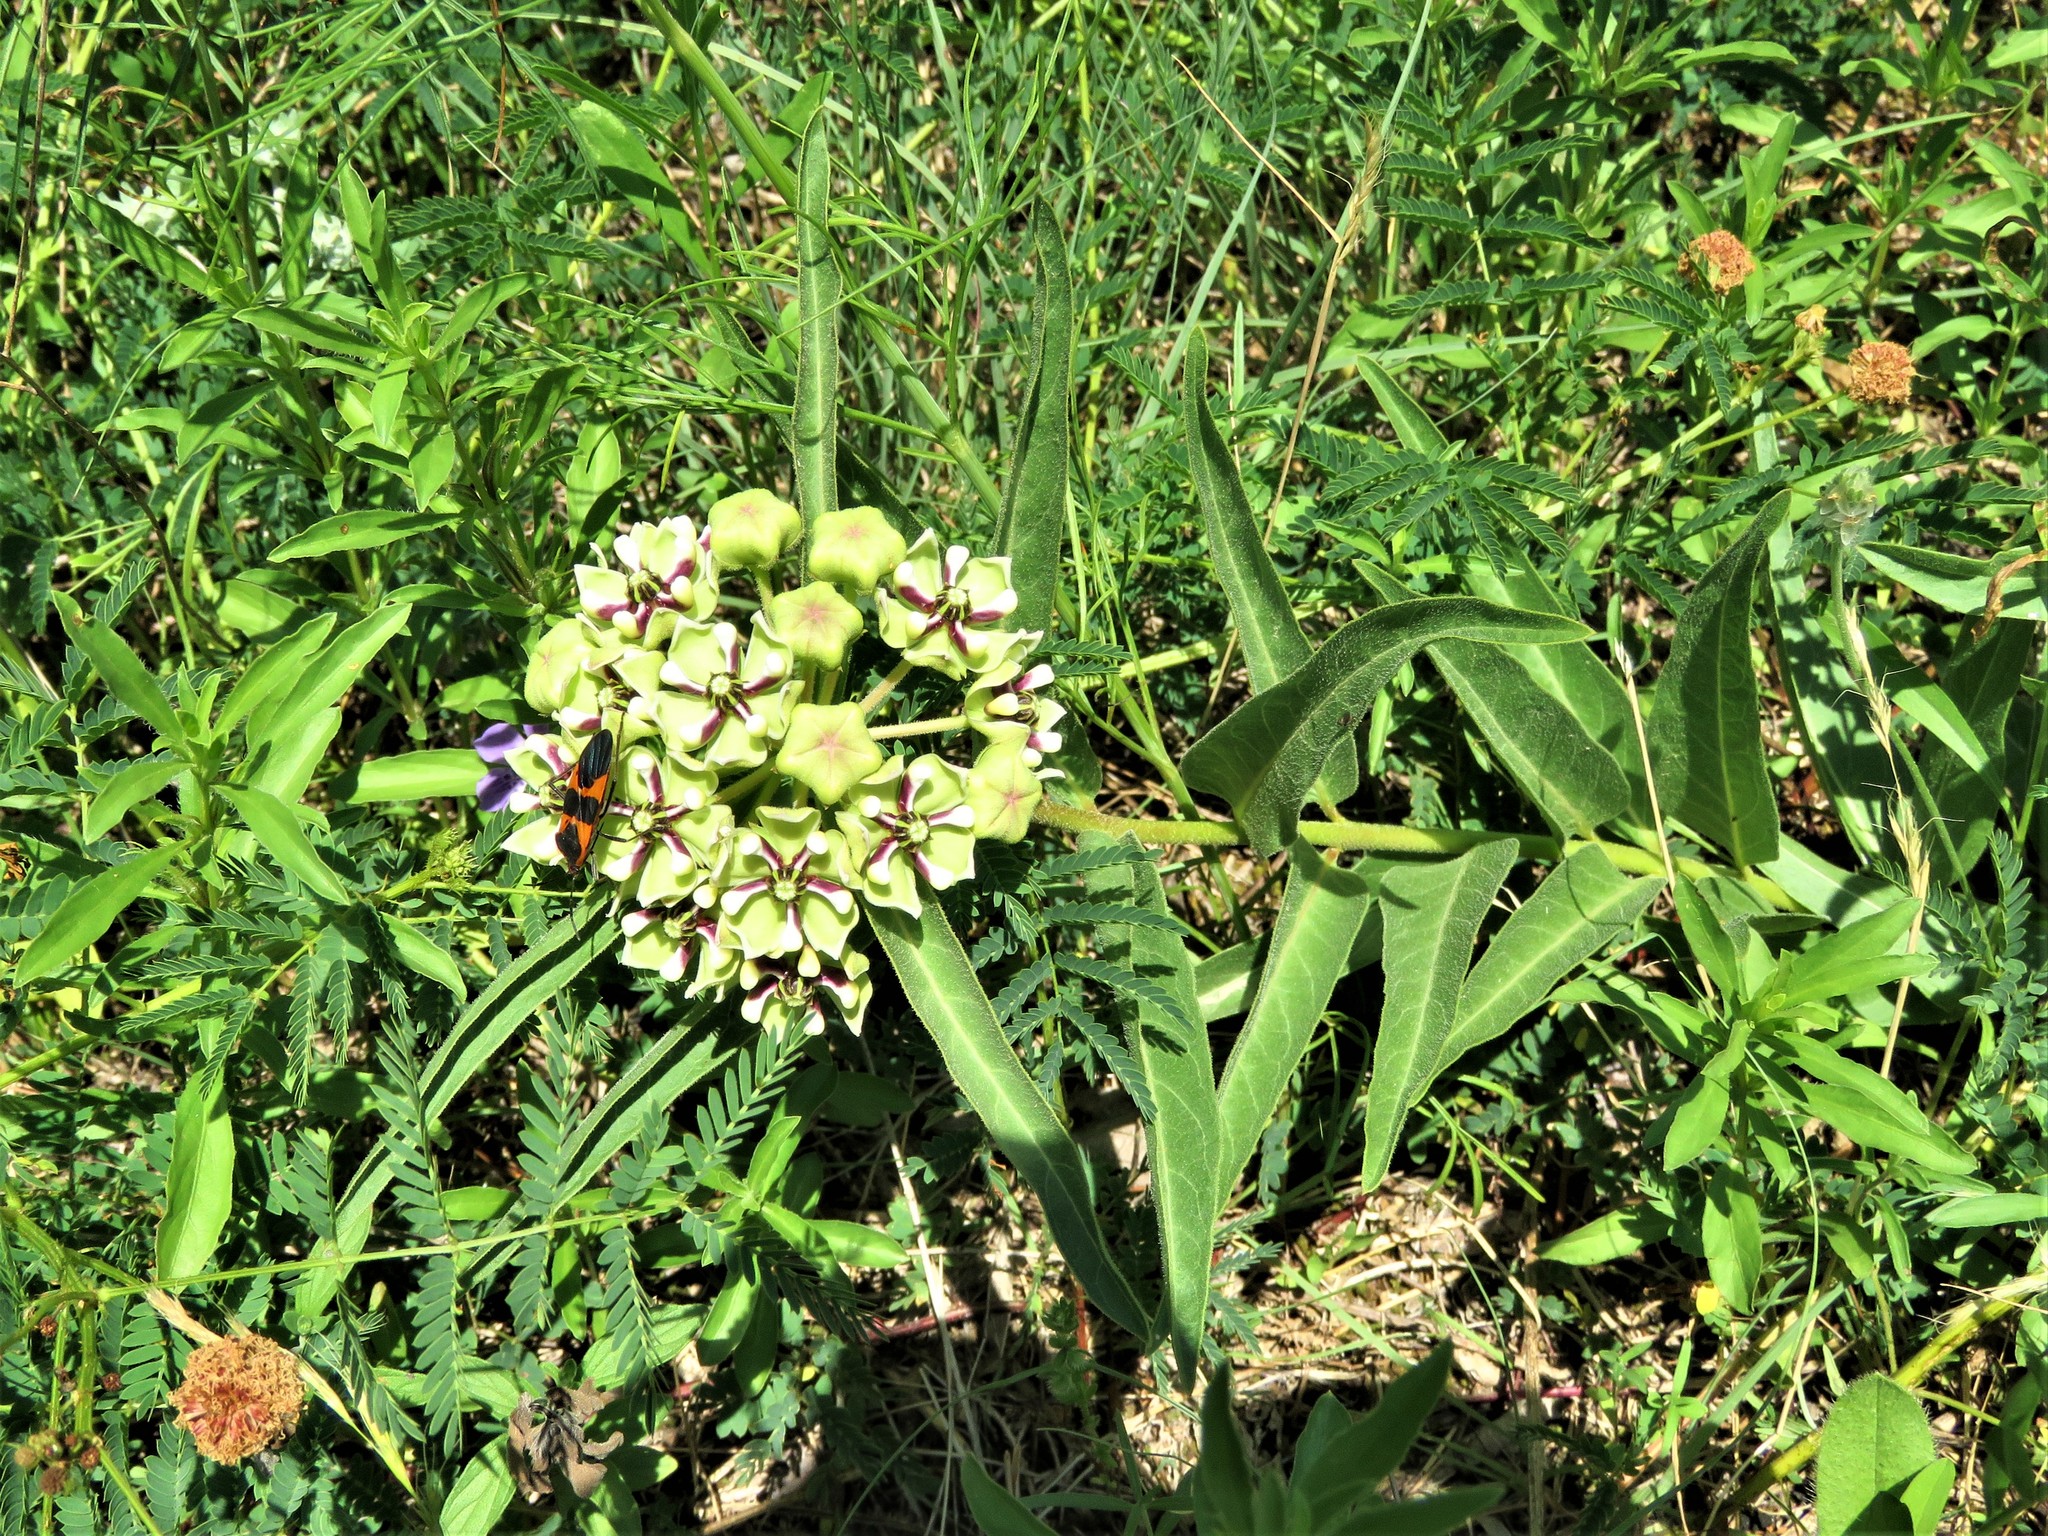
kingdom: Plantae
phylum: Tracheophyta
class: Magnoliopsida
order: Gentianales
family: Apocynaceae
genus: Asclepias
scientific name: Asclepias asperula
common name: Antelope horns
